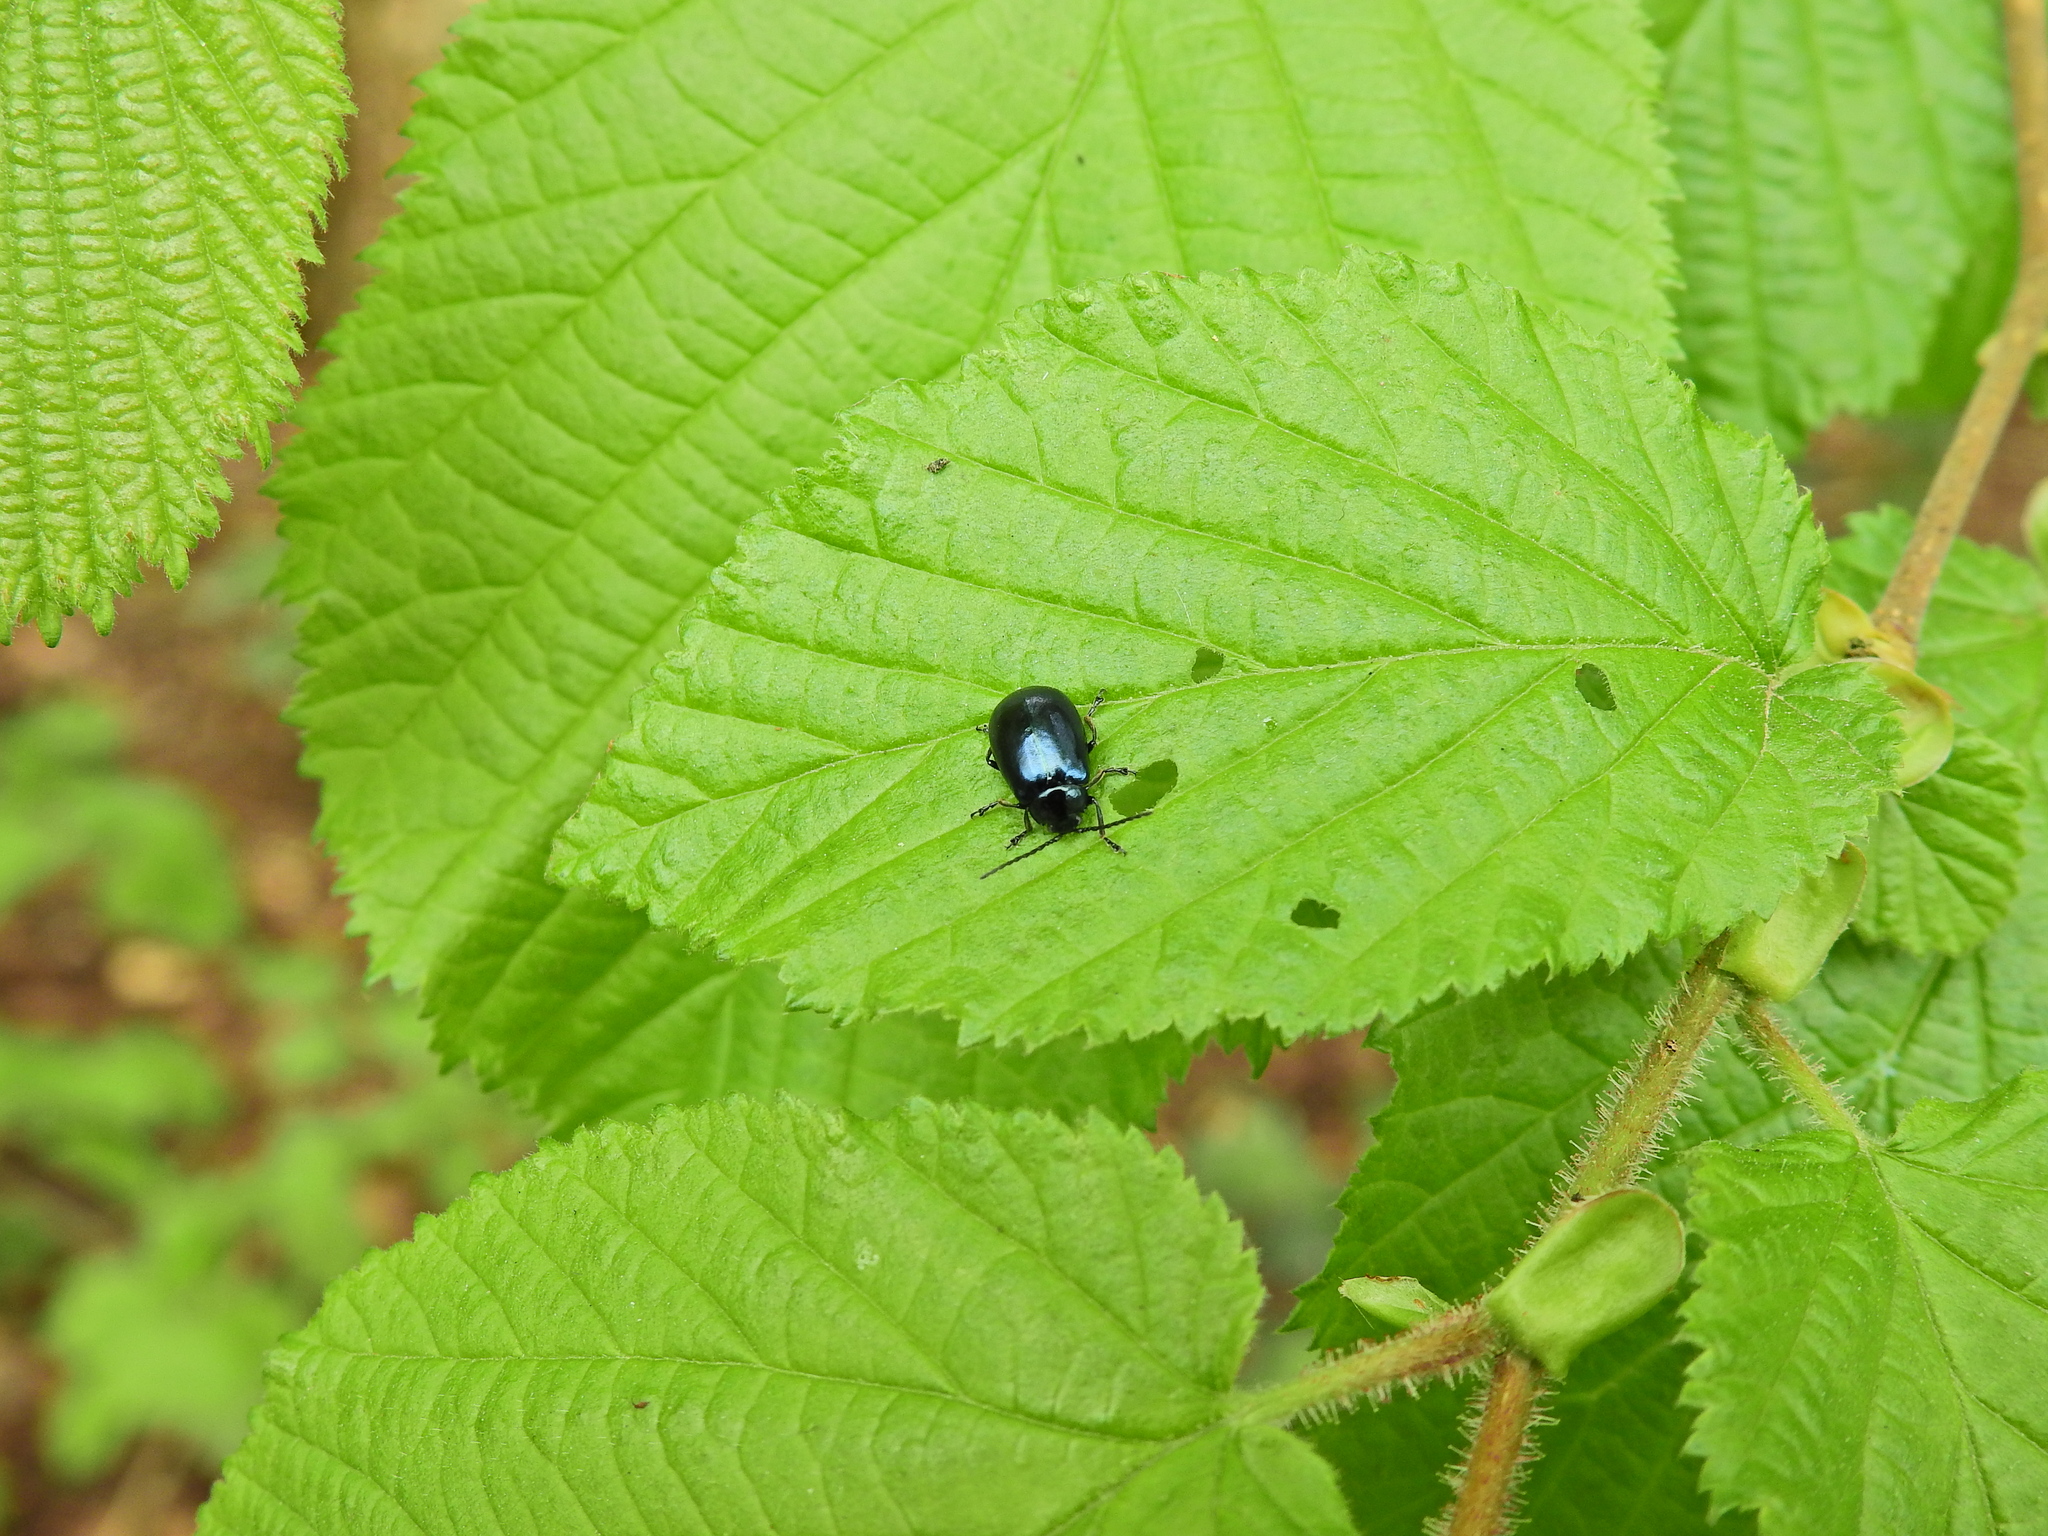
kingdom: Animalia
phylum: Arthropoda
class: Insecta
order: Coleoptera
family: Chrysomelidae
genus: Agelastica
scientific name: Agelastica alni
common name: Alder leaf beetle
